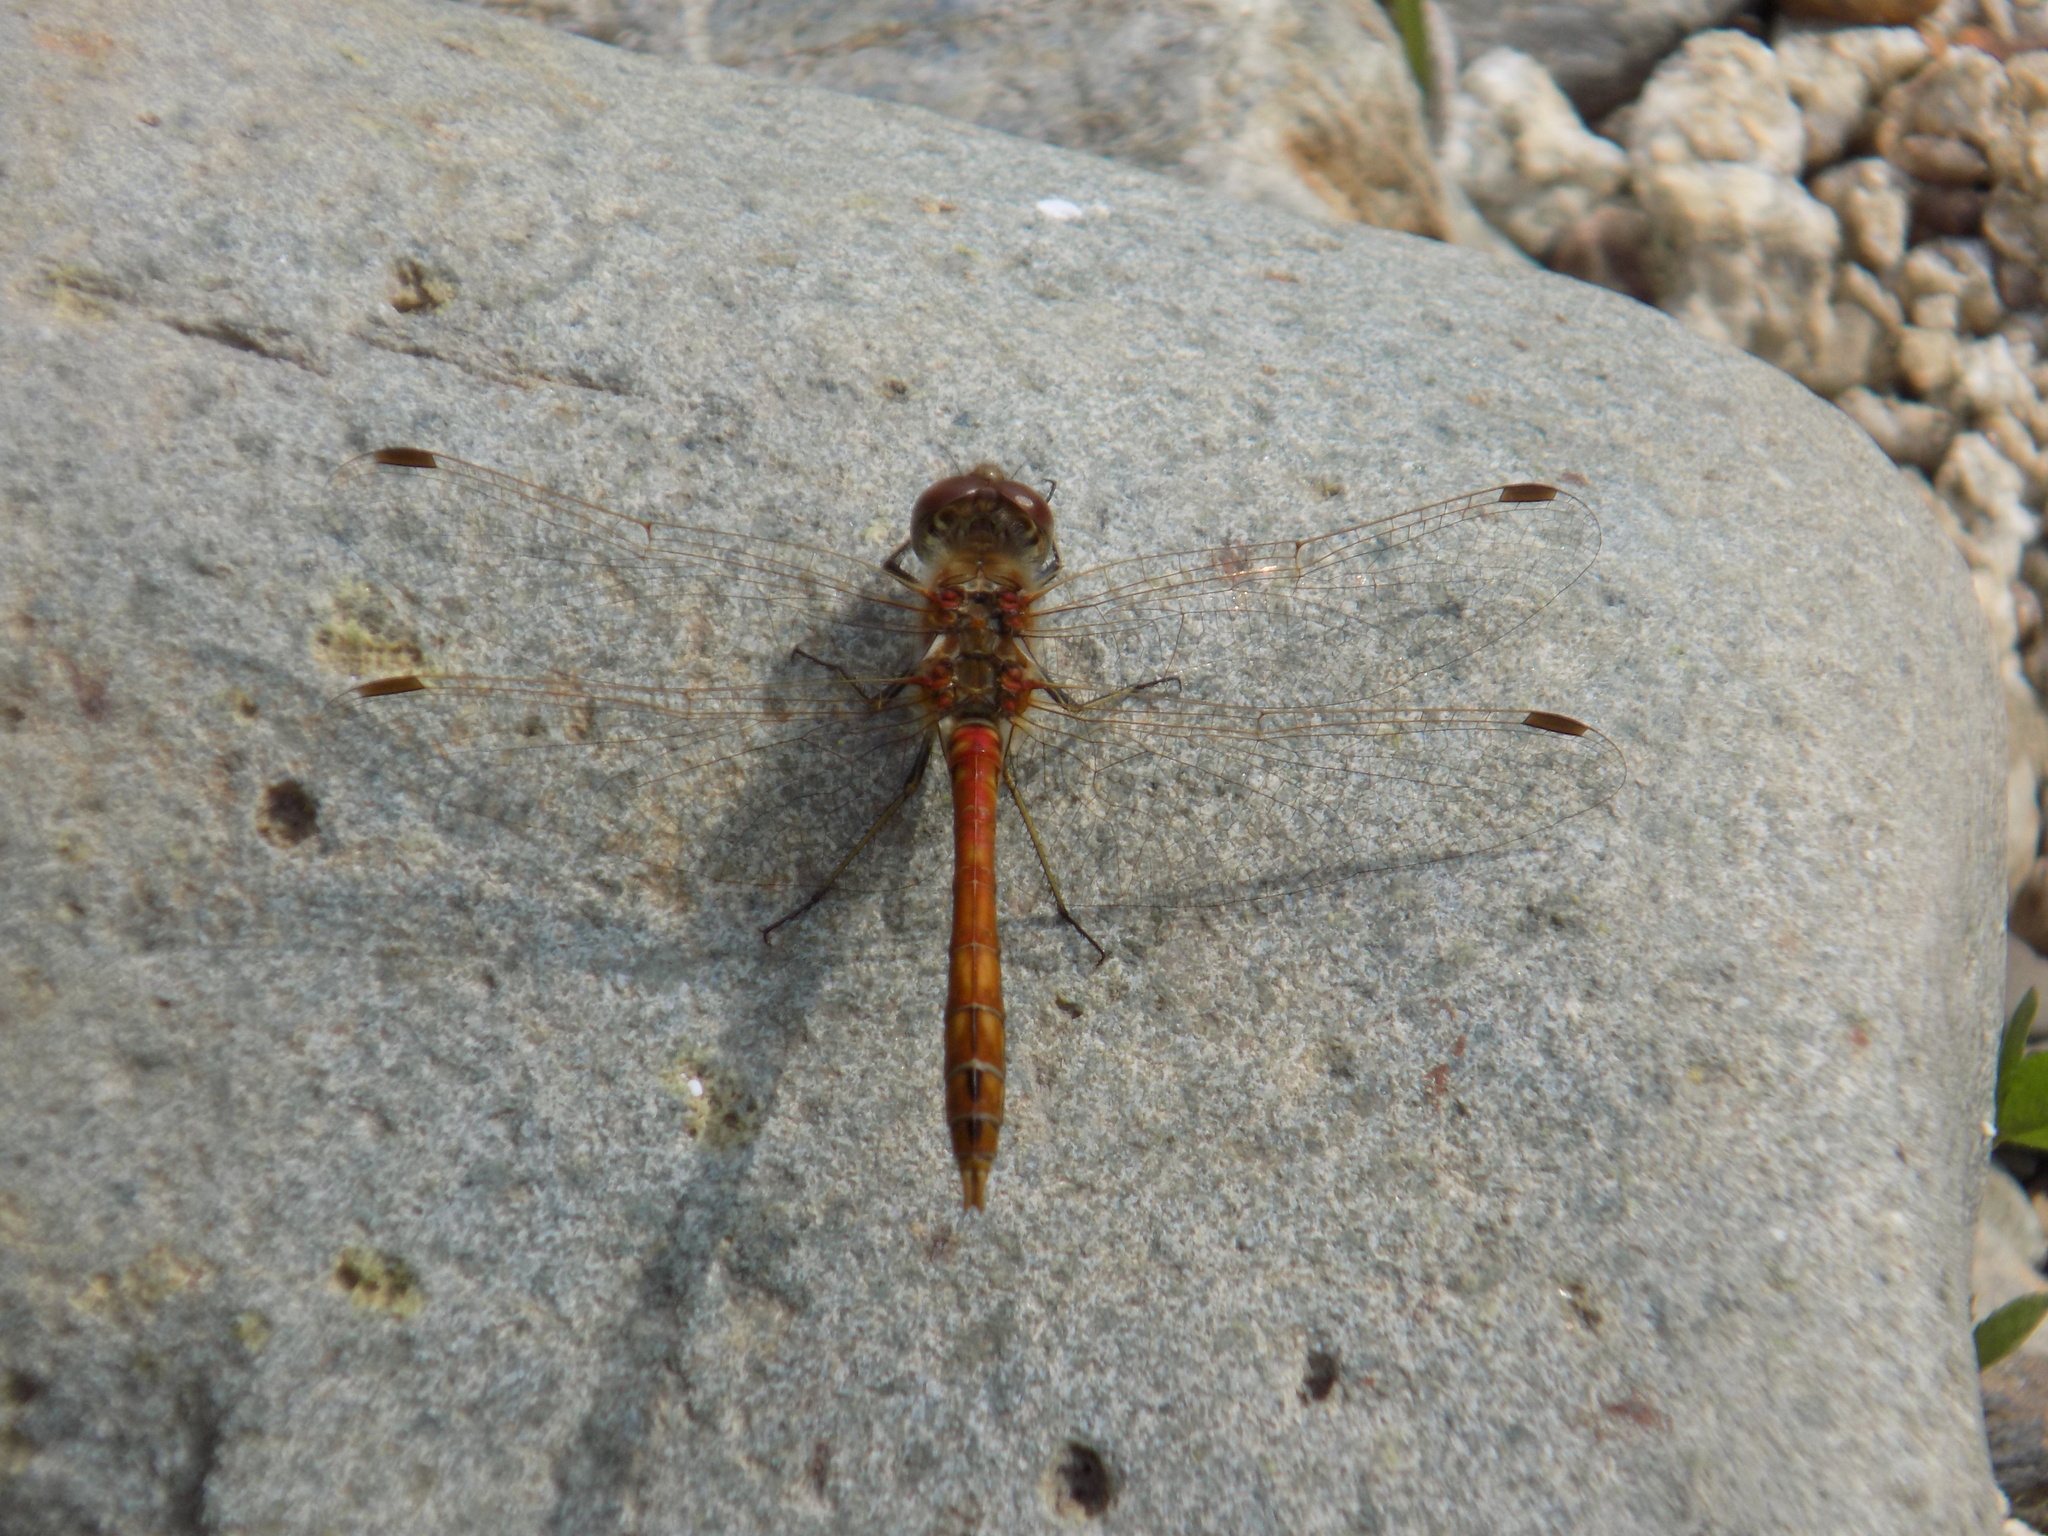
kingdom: Animalia
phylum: Arthropoda
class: Insecta
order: Odonata
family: Libellulidae
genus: Sympetrum
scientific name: Sympetrum vulgatum
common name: Vagrant darter
